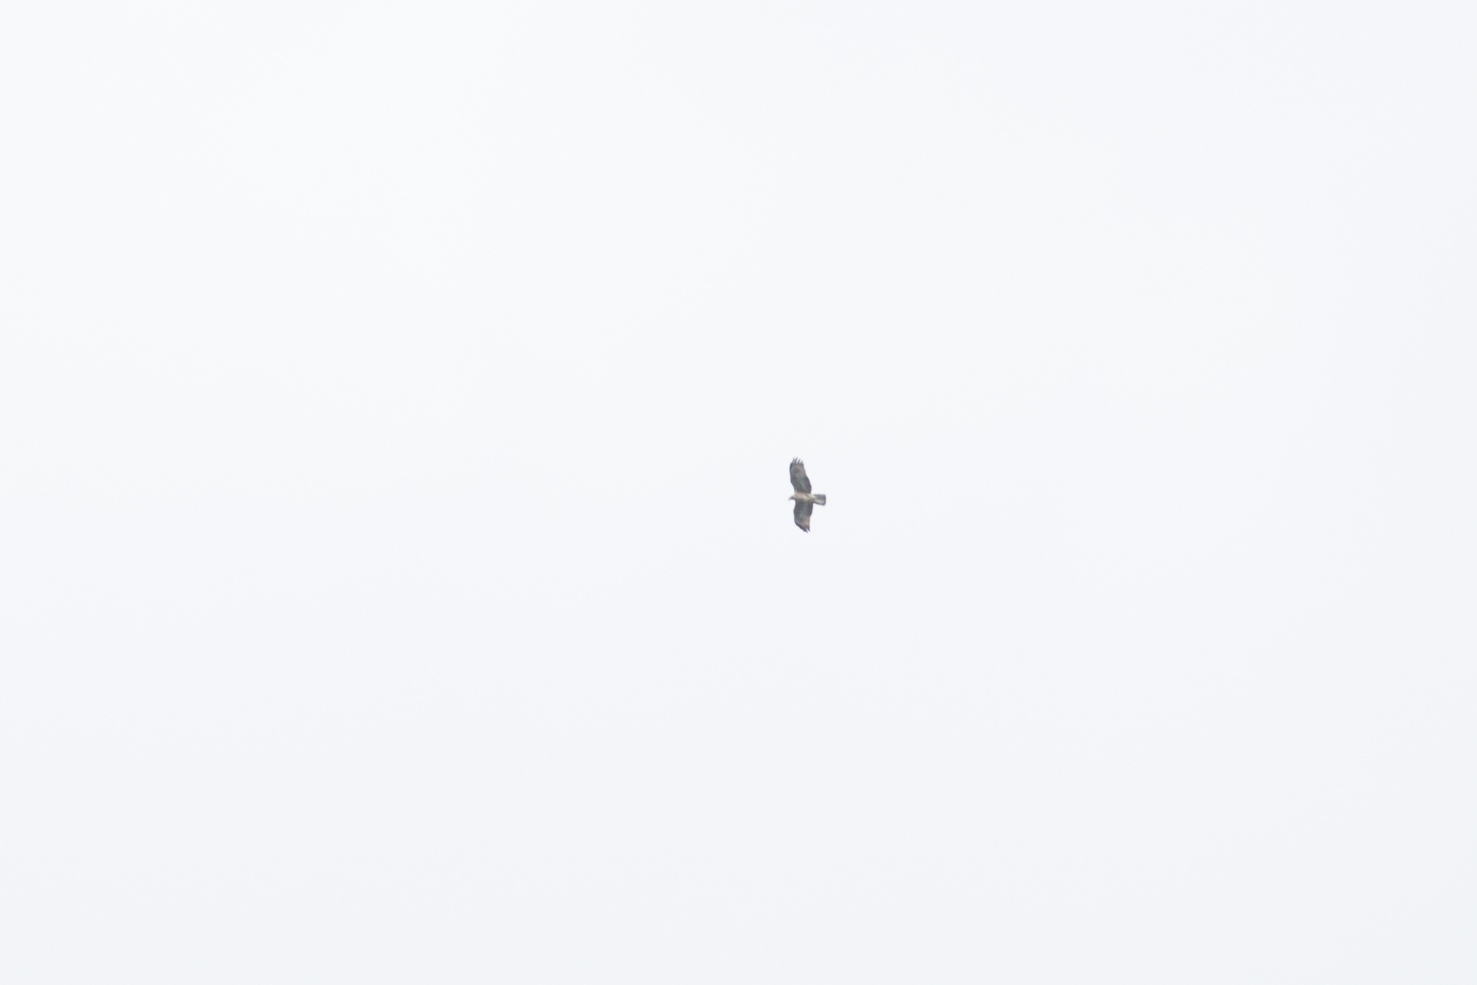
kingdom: Animalia
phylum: Chordata
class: Aves
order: Accipitriformes
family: Accipitridae
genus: Pernis
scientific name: Pernis ptilorhynchus
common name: Crested honey buzzard
